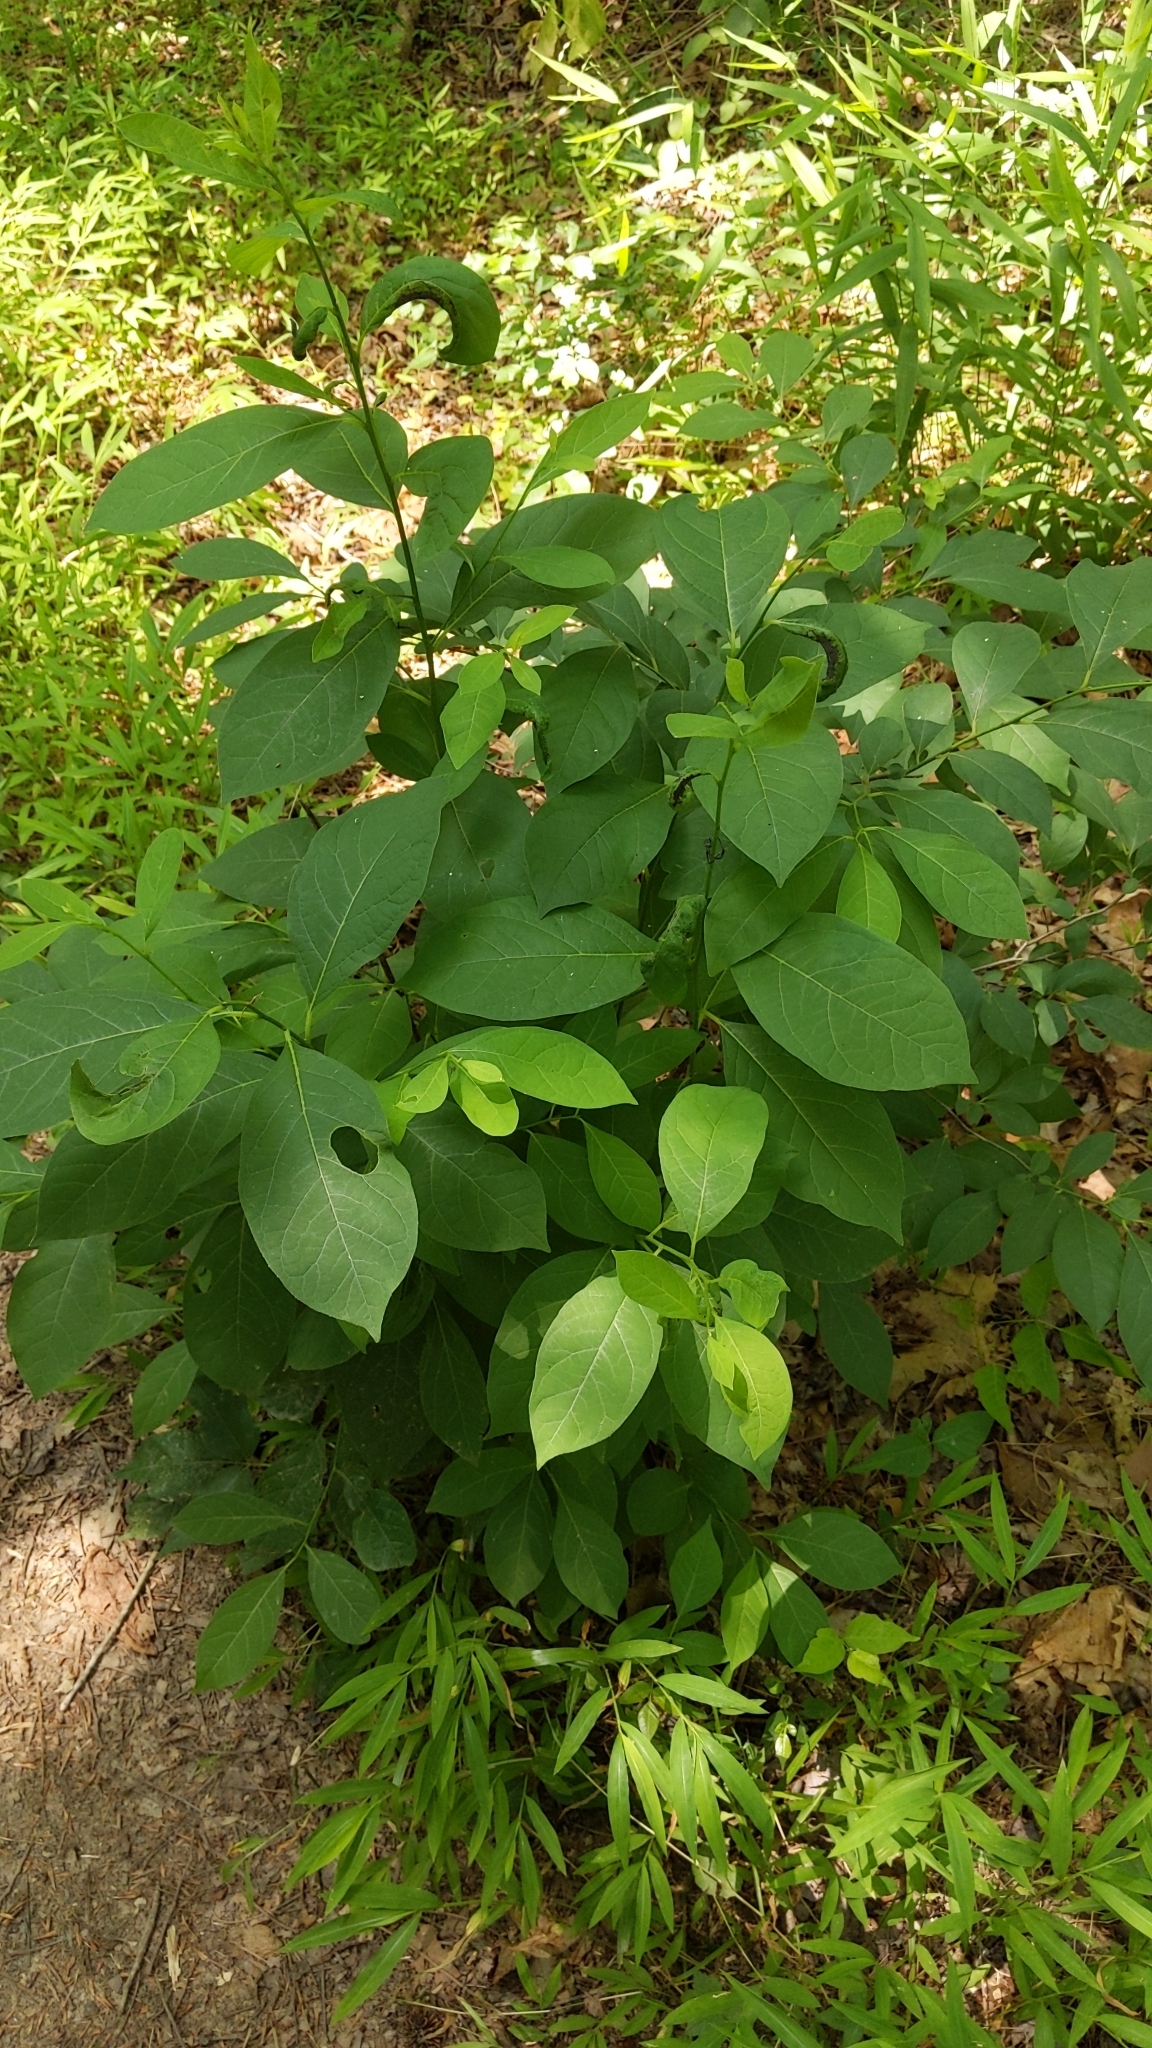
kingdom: Plantae
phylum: Tracheophyta
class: Magnoliopsida
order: Laurales
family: Lauraceae
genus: Lindera
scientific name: Lindera benzoin
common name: Spicebush
